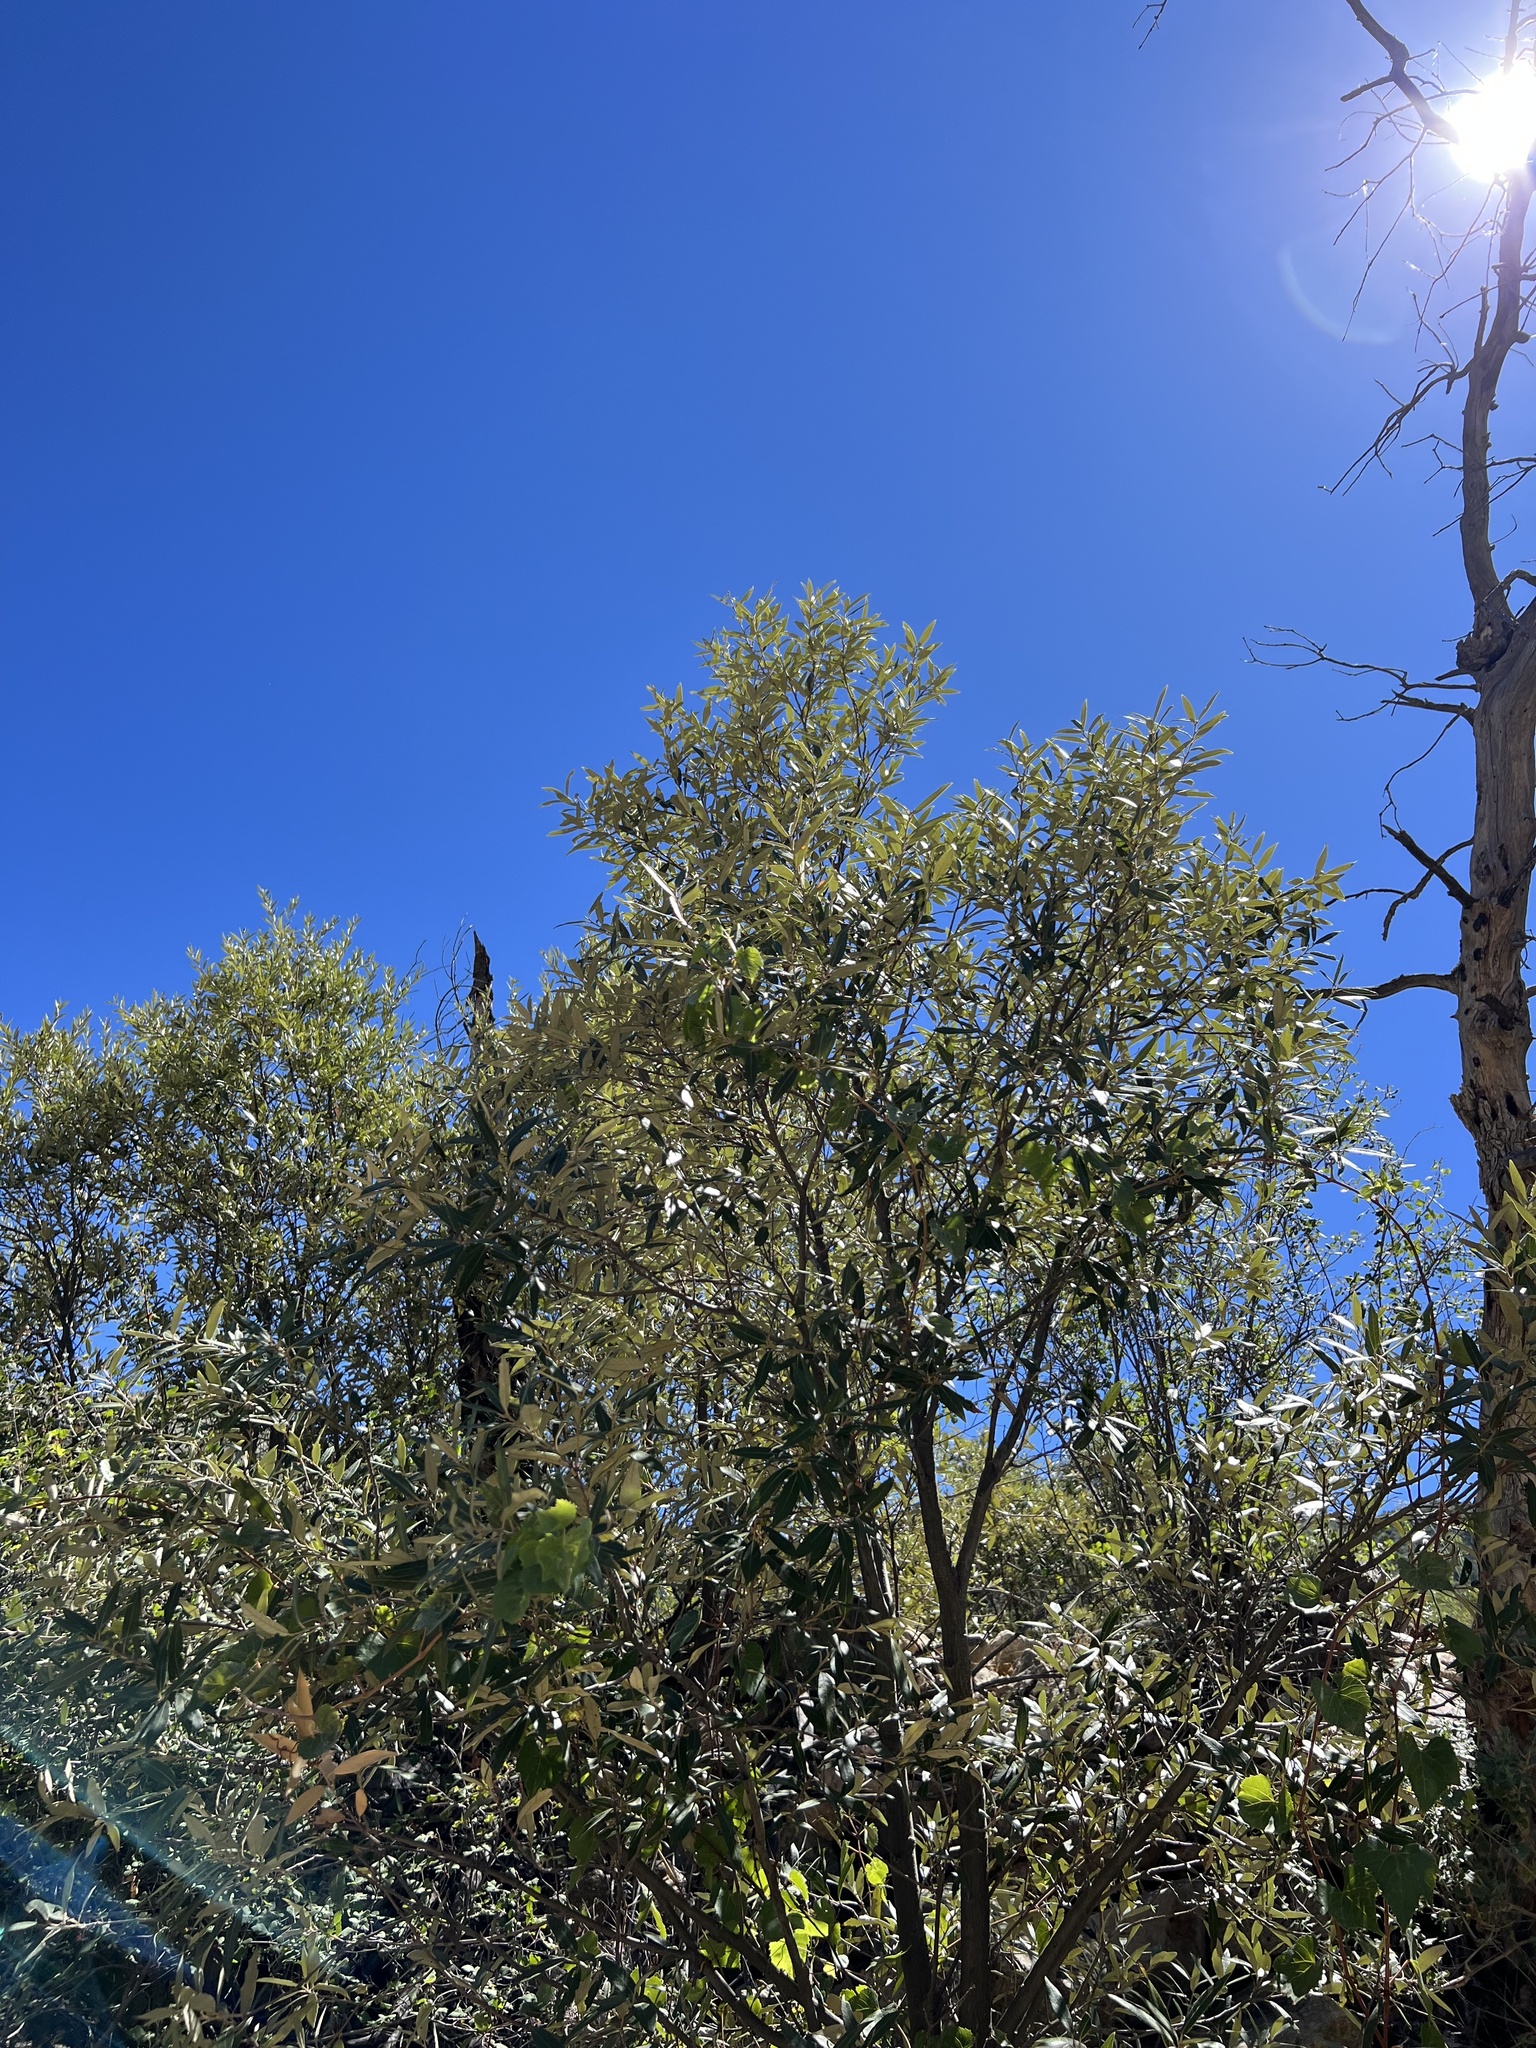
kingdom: Plantae
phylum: Tracheophyta
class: Magnoliopsida
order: Fagales
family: Fagaceae
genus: Quercus
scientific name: Quercus hypoleucoides
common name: Silverleaf oak
